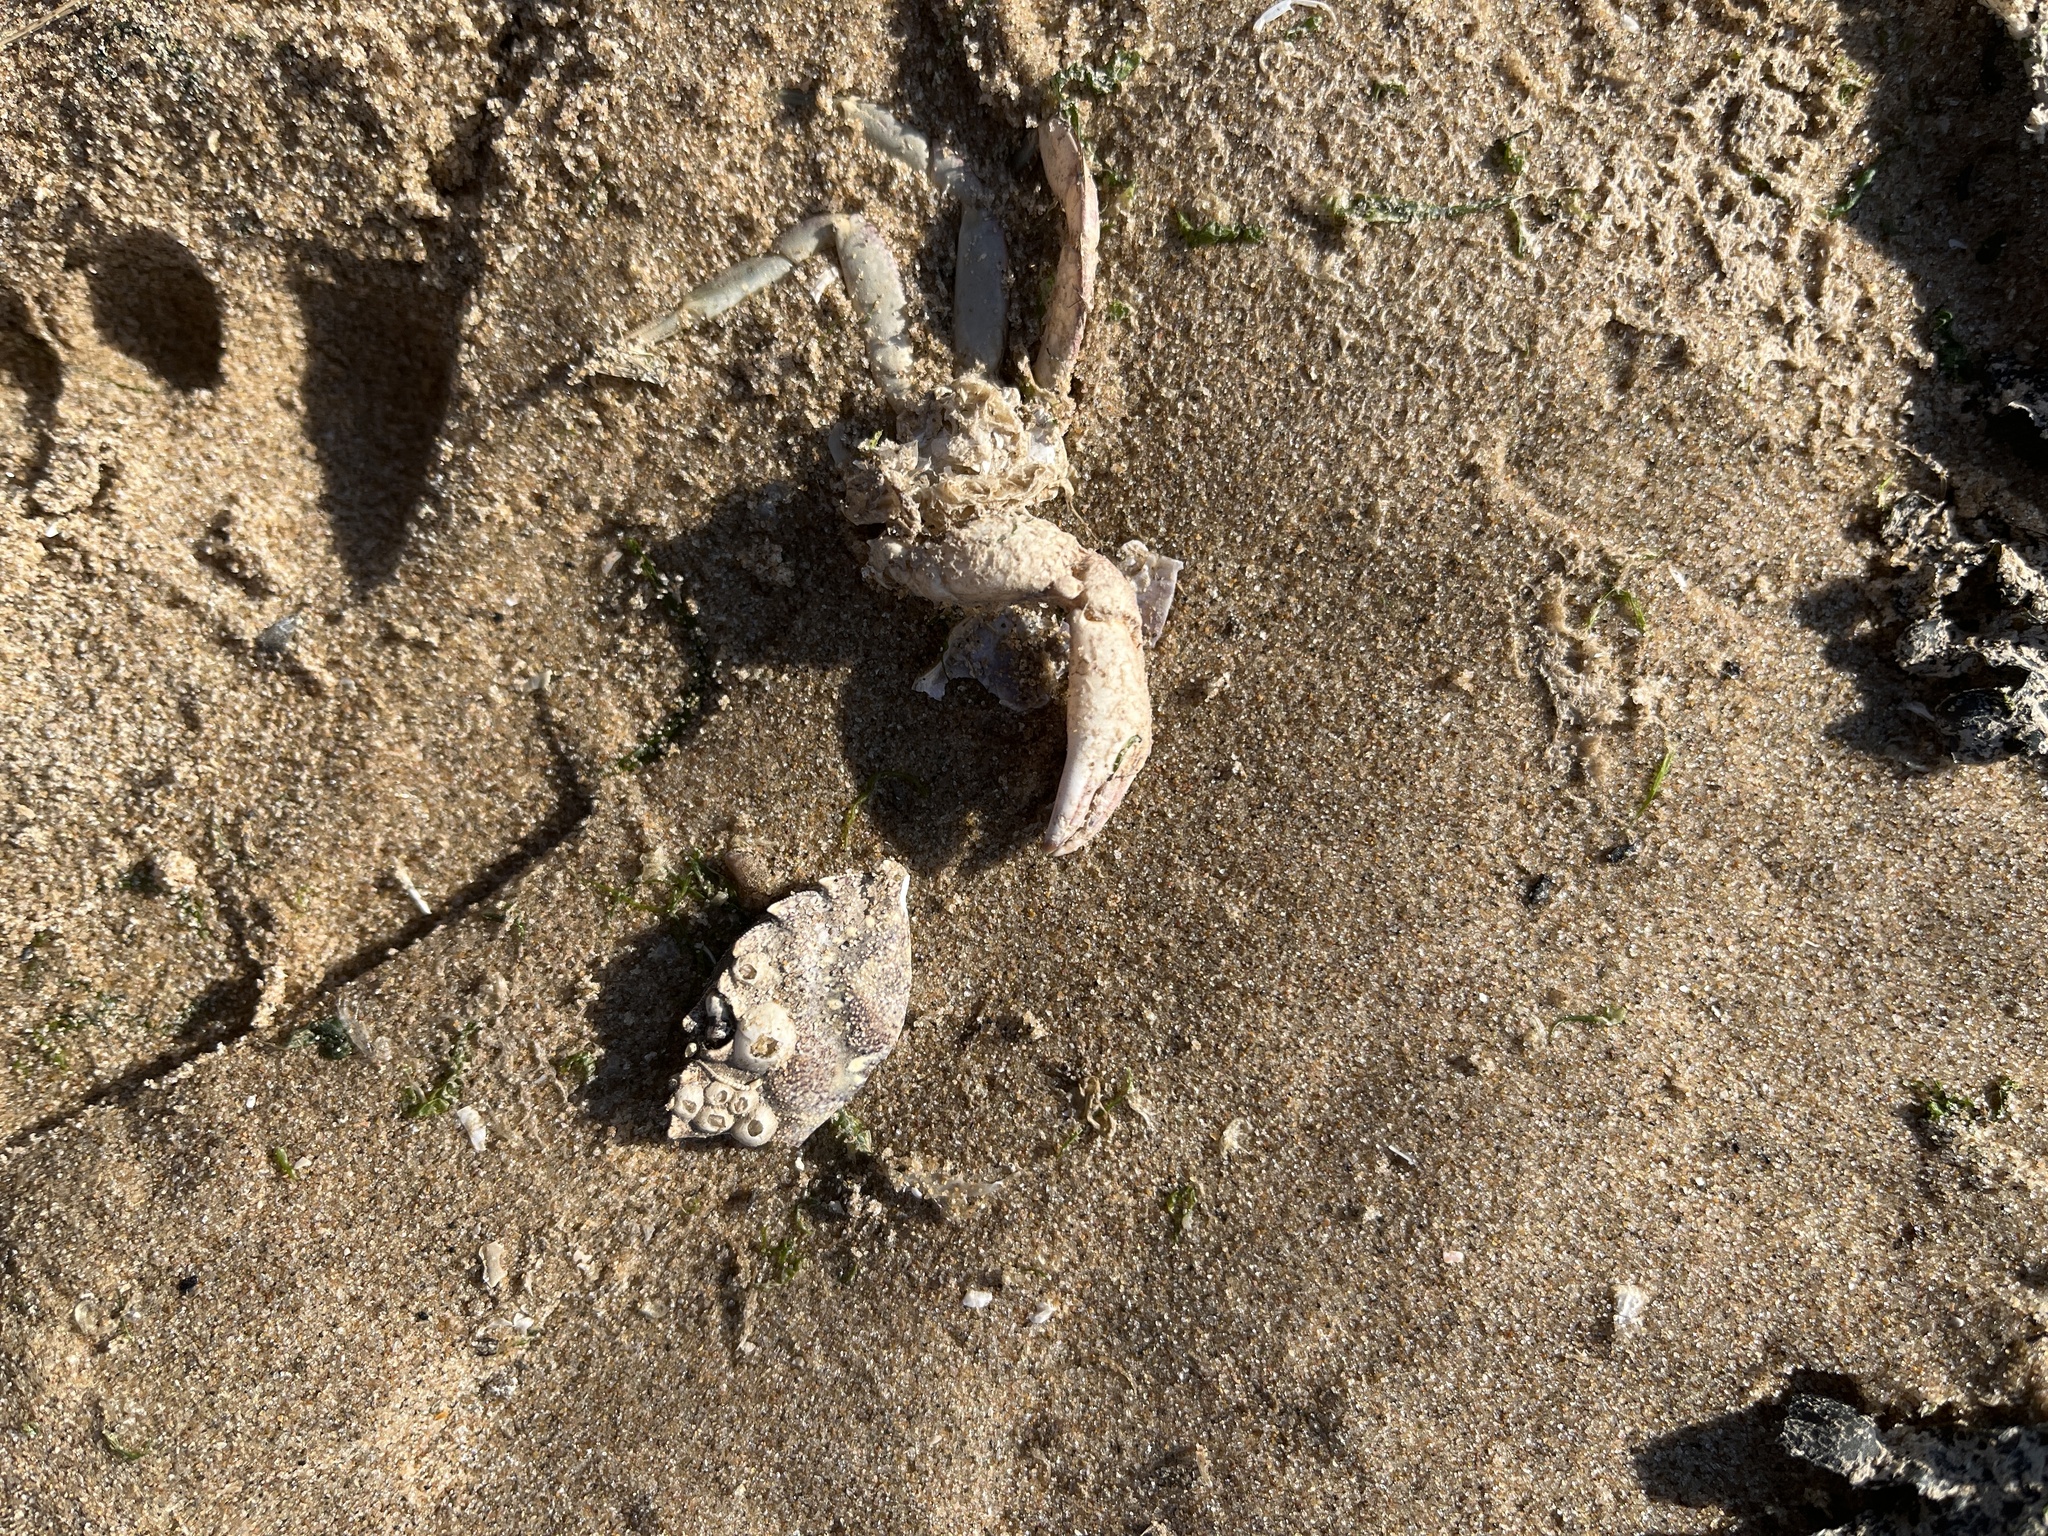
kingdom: Animalia
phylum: Arthropoda
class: Malacostraca
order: Decapoda
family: Carcinidae
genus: Carcinus
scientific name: Carcinus maenas
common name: European green crab
